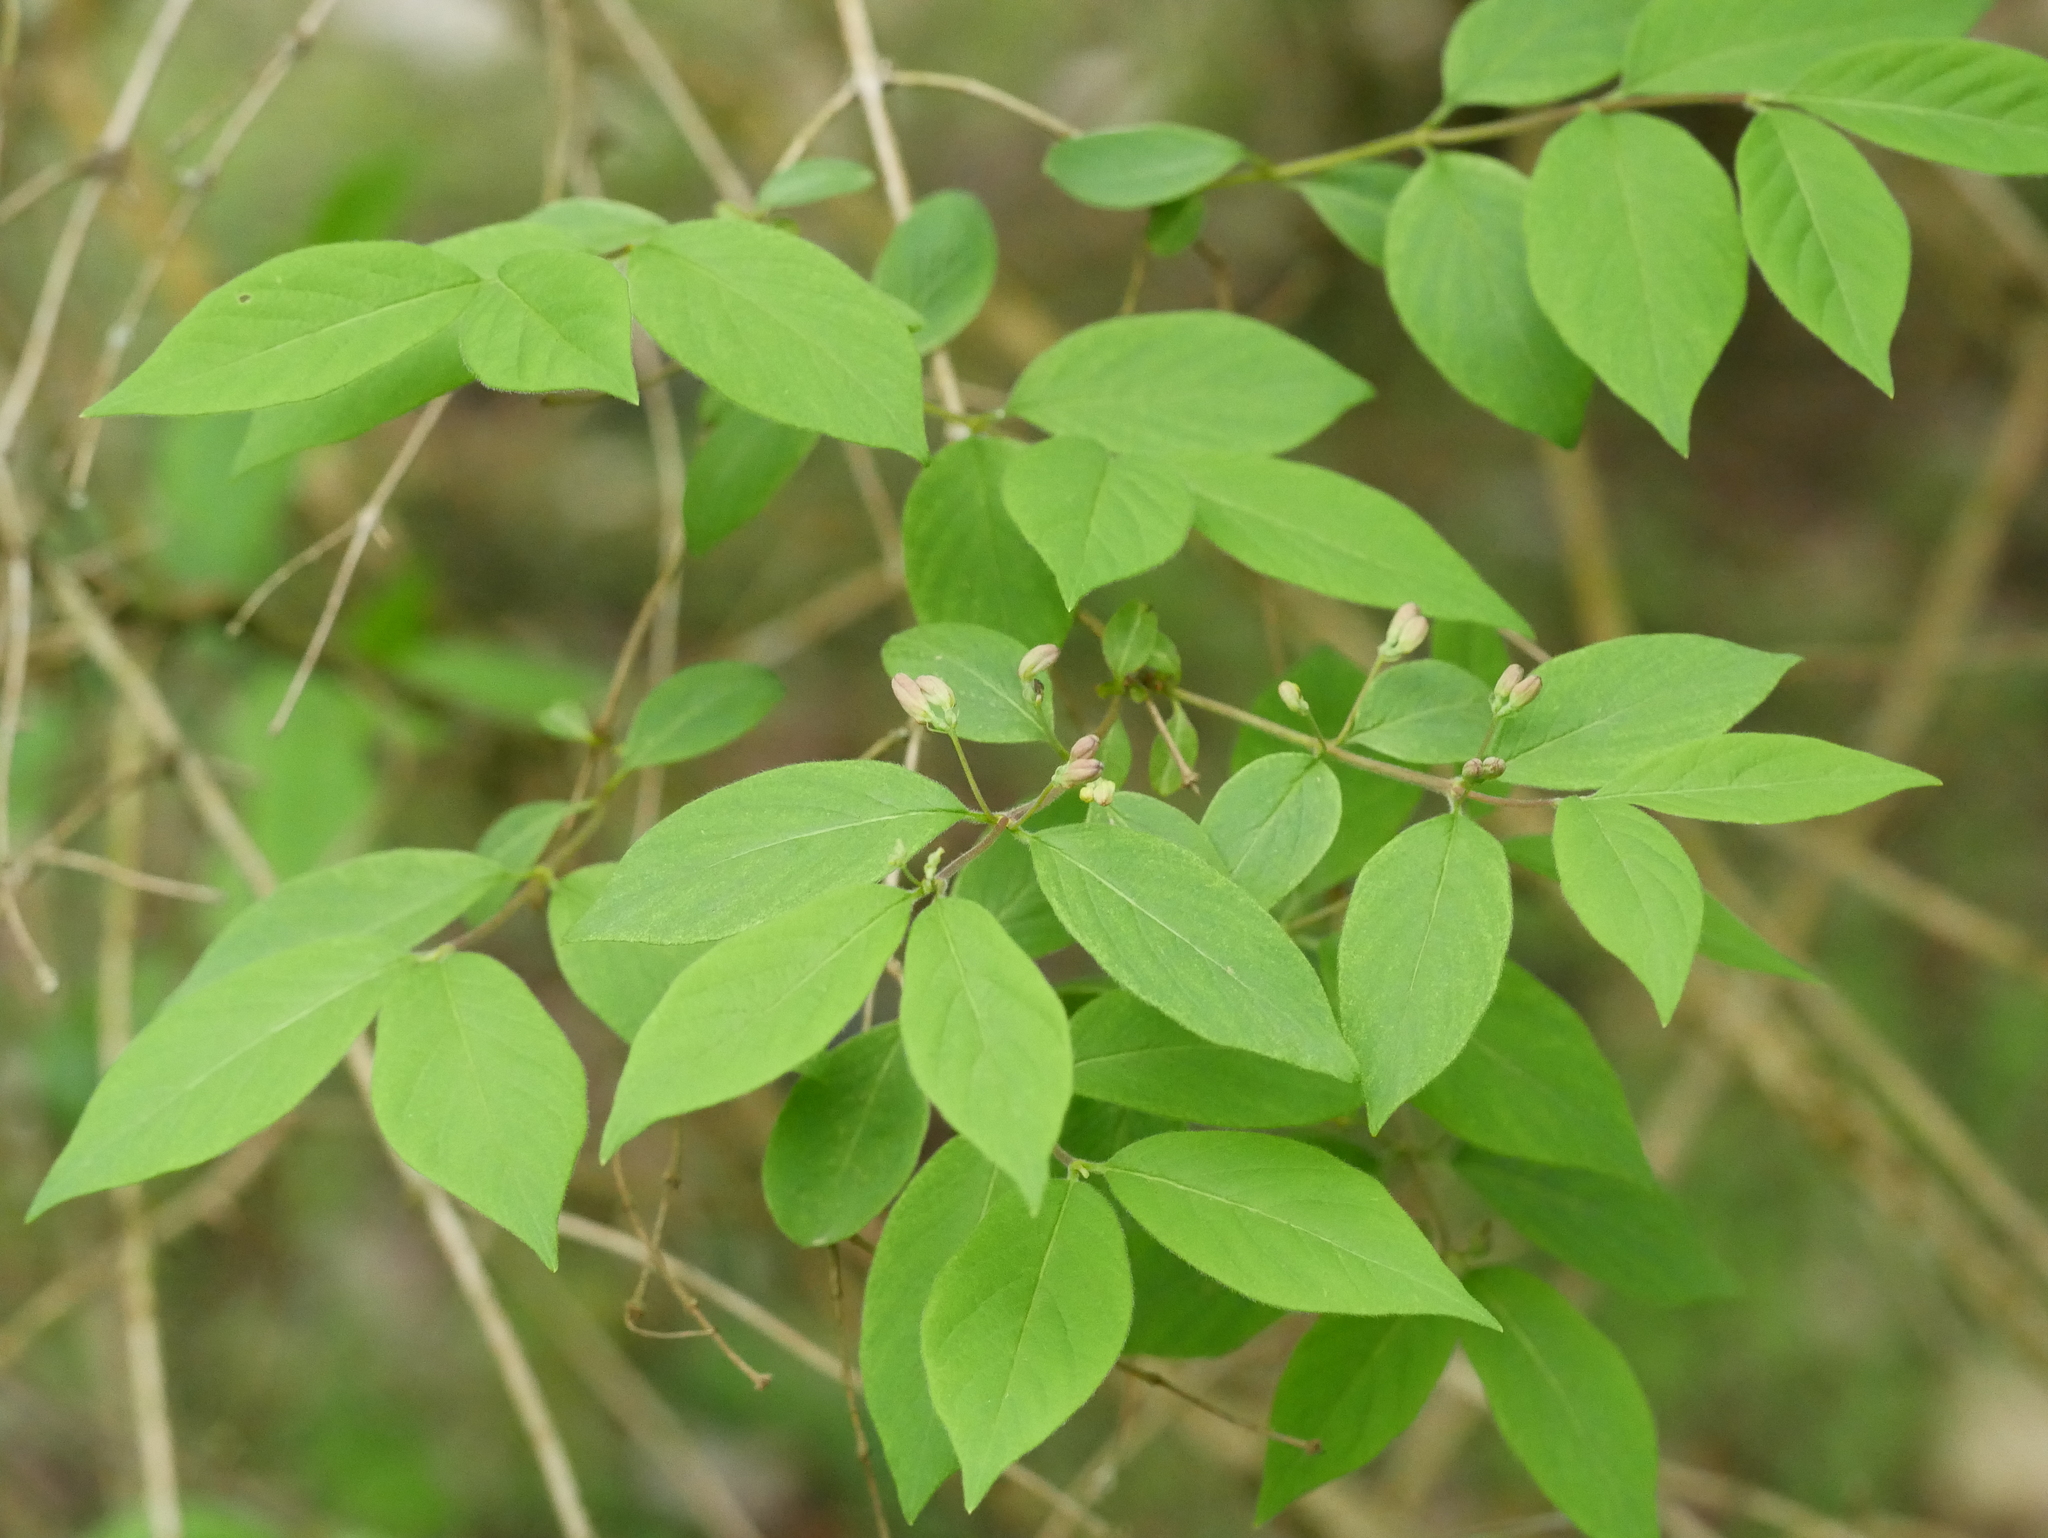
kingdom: Plantae
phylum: Tracheophyta
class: Magnoliopsida
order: Dipsacales
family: Caprifoliaceae
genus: Lonicera
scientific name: Lonicera xylosteum
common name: Fly honeysuckle
